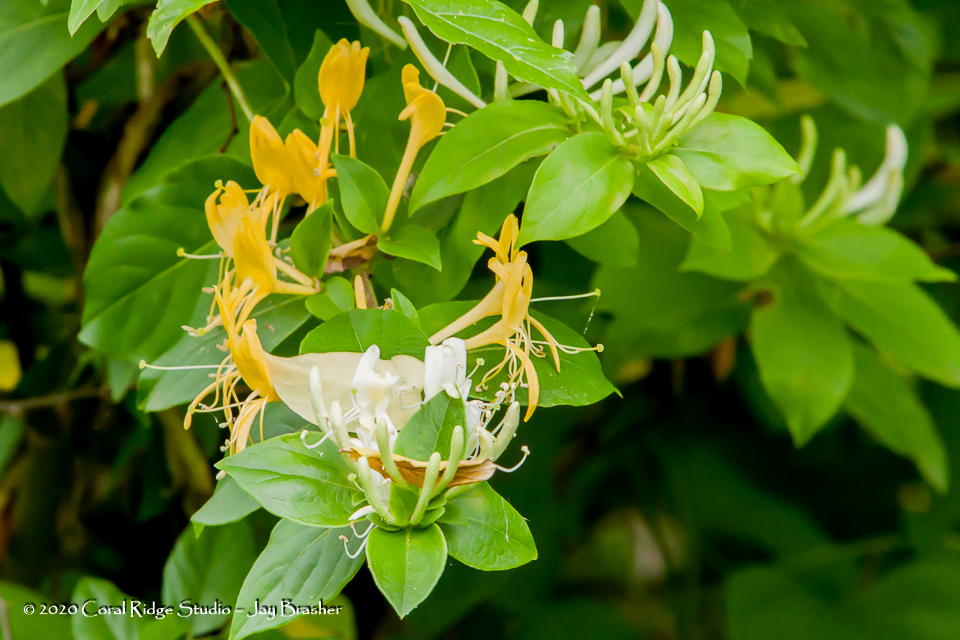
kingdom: Plantae
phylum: Tracheophyta
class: Magnoliopsida
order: Dipsacales
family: Caprifoliaceae
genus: Lonicera
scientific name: Lonicera japonica
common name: Japanese honeysuckle
